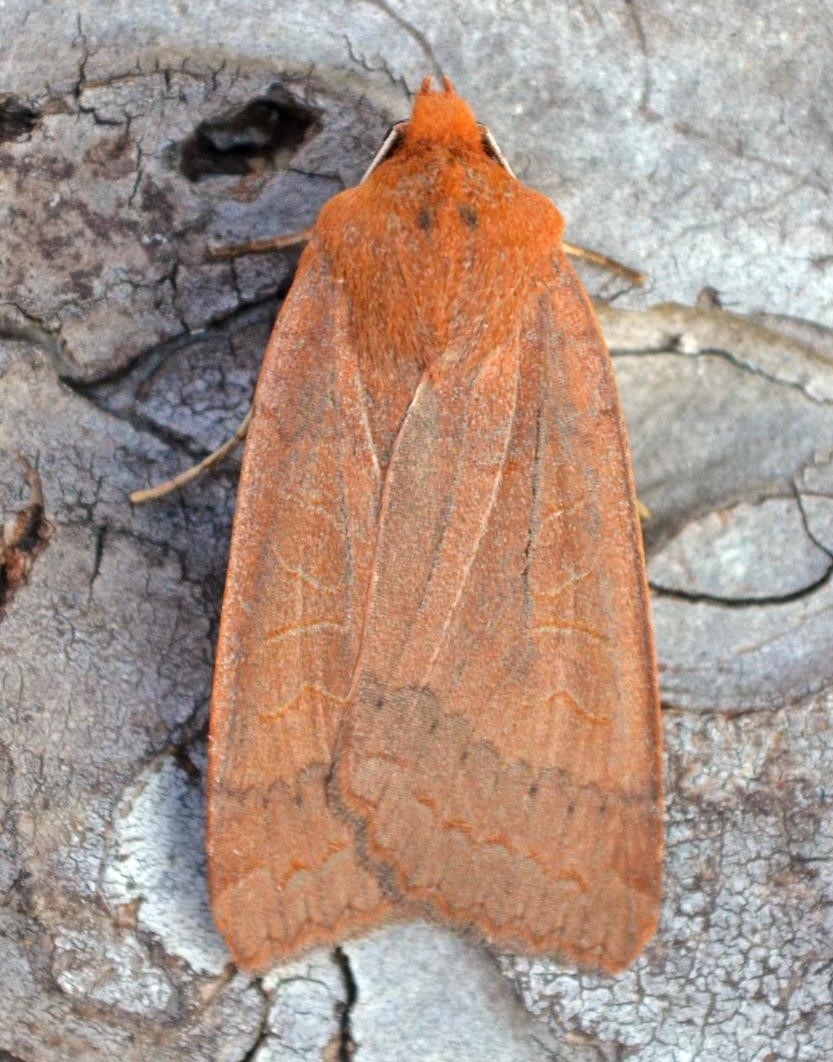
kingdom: Animalia
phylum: Arthropoda
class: Insecta
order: Lepidoptera
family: Noctuidae
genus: Metaxaglaea
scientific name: Metaxaglaea semitaria
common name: Footpath sallow moth
